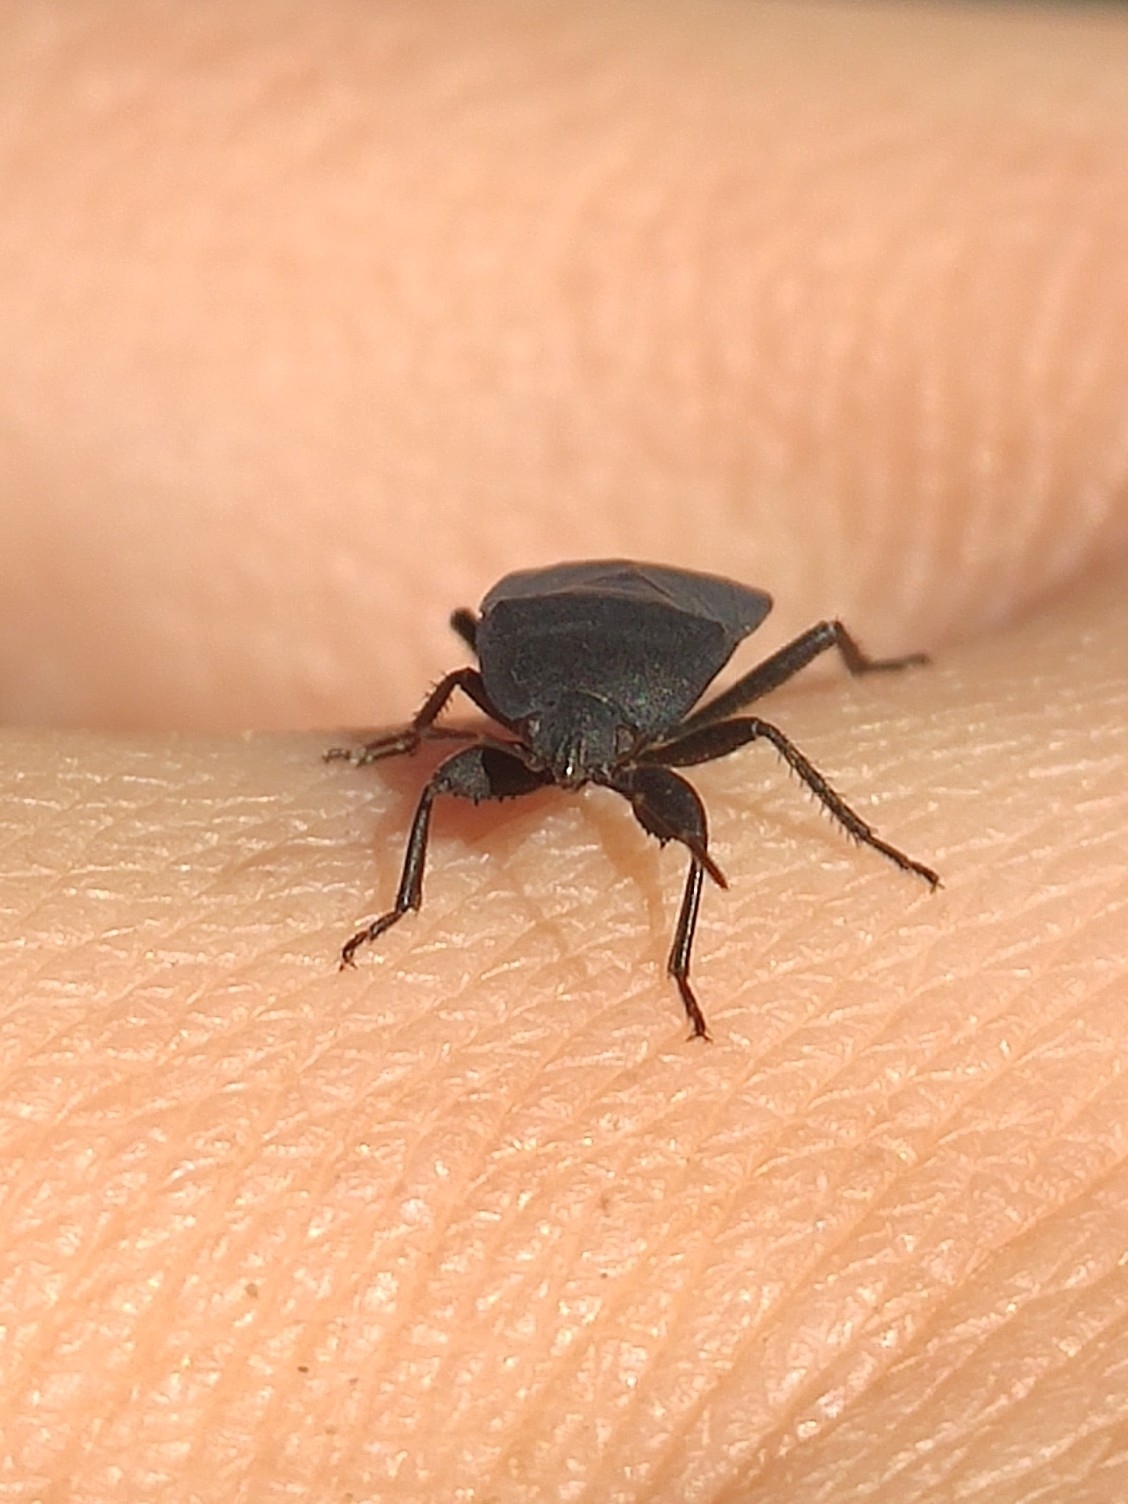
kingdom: Animalia
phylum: Arthropoda
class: Insecta
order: Hemiptera
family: Rhyparochromidae
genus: Aellopus
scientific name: Aellopus atratus
